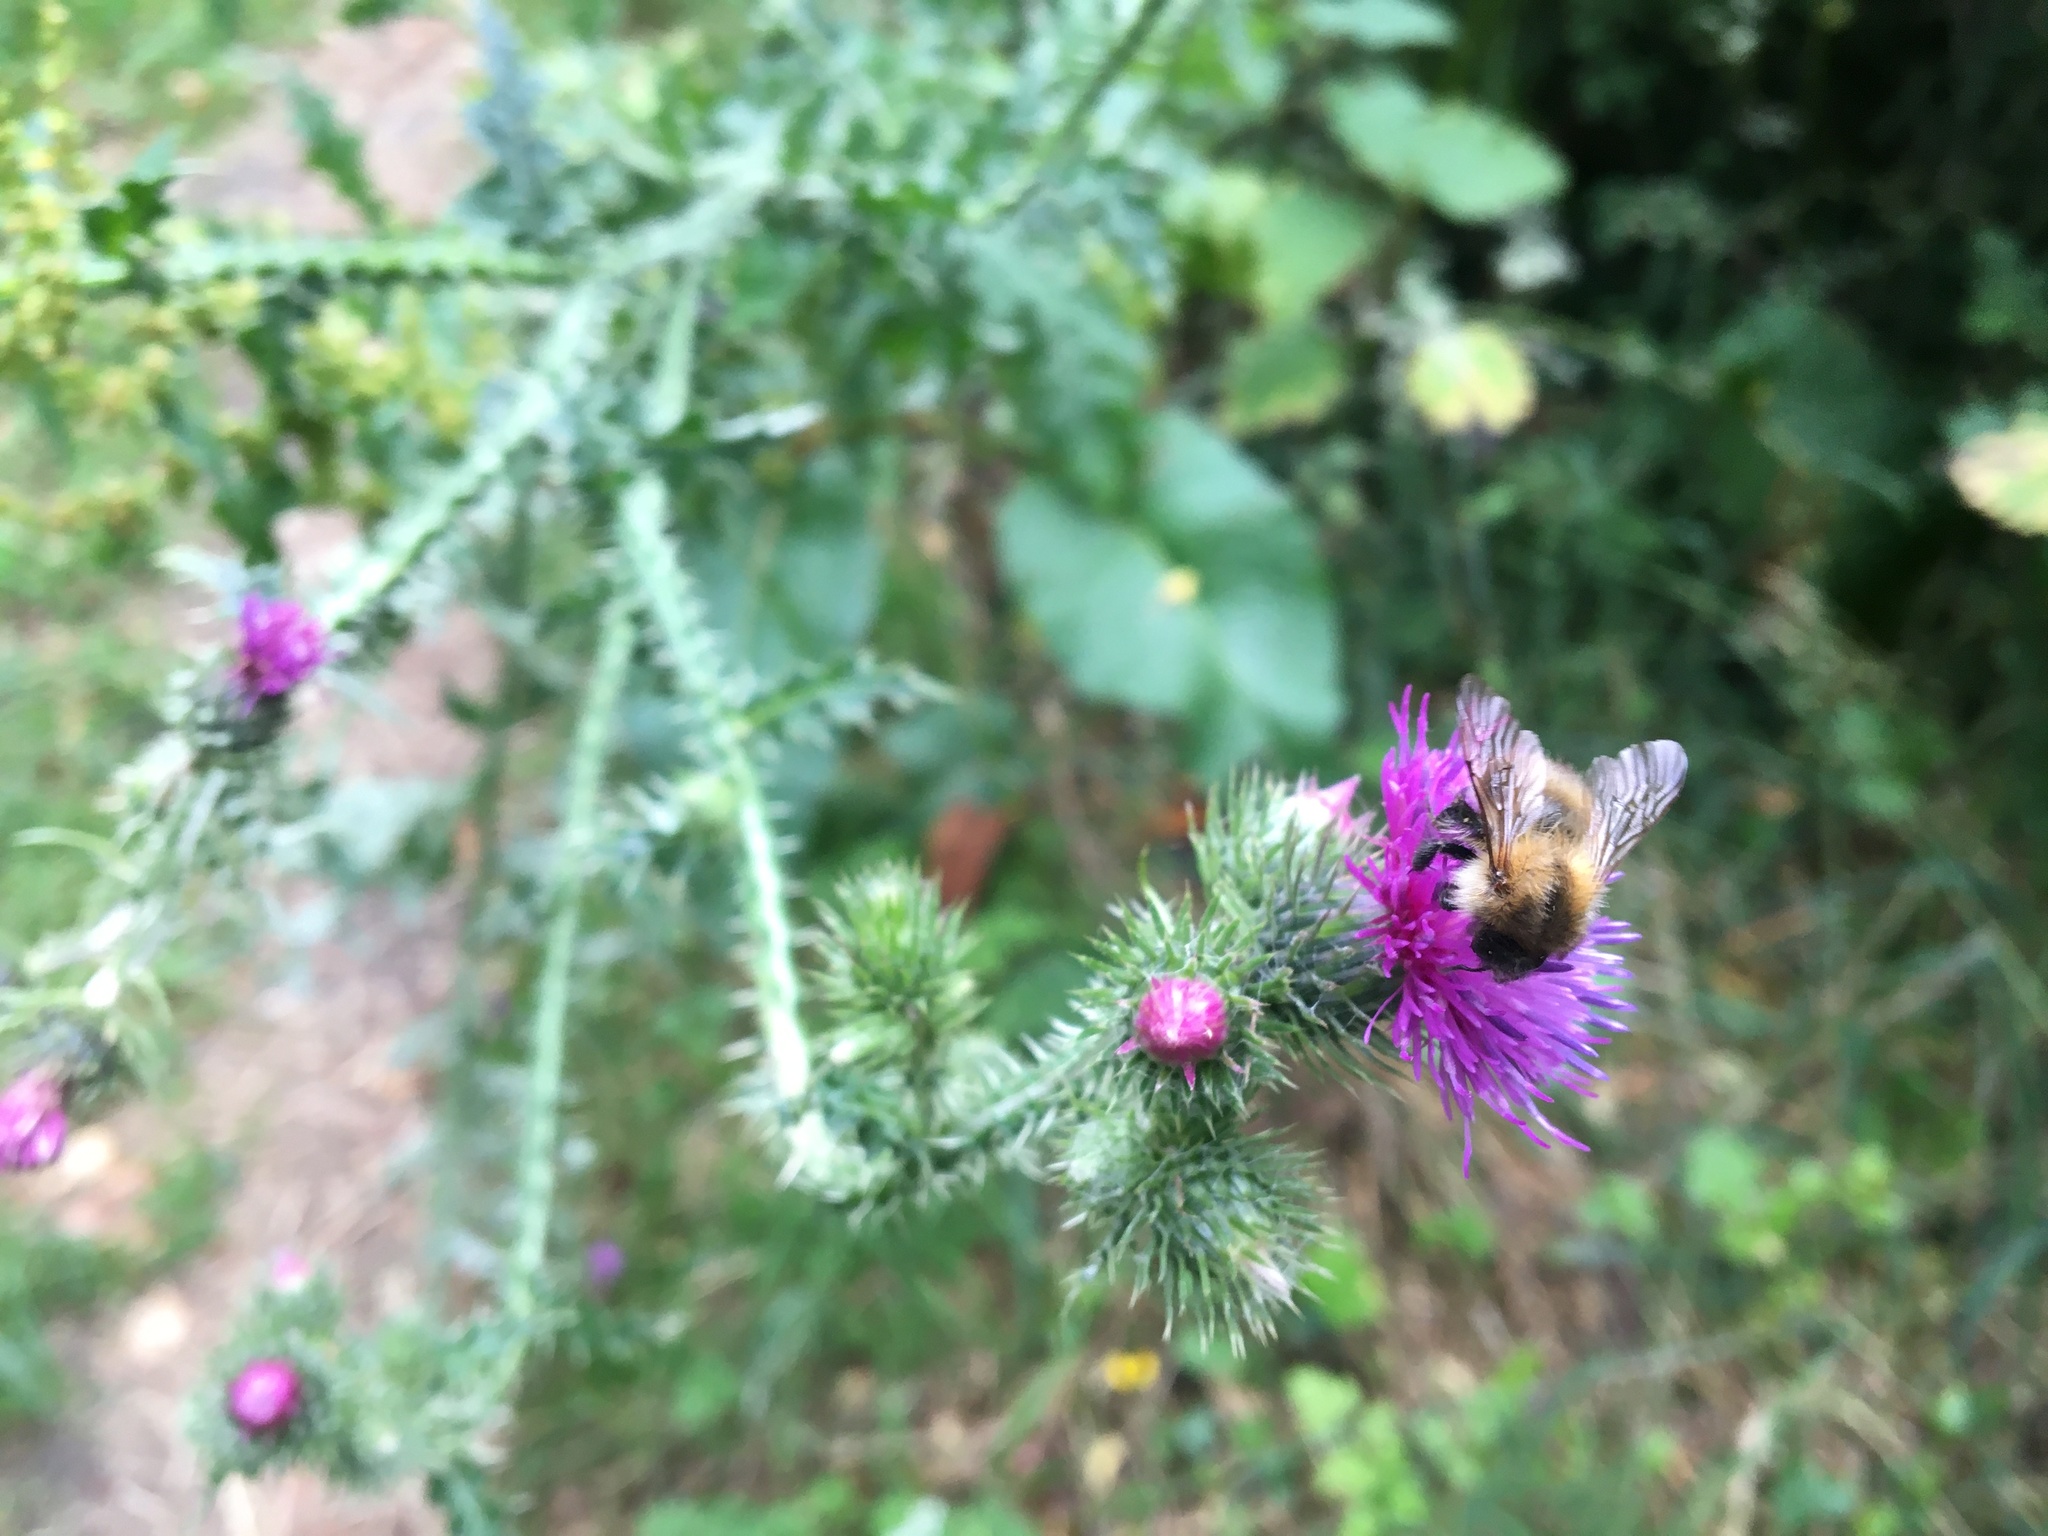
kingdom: Animalia
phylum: Arthropoda
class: Insecta
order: Hymenoptera
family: Apidae
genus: Bombus
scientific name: Bombus pascuorum
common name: Common carder bee
